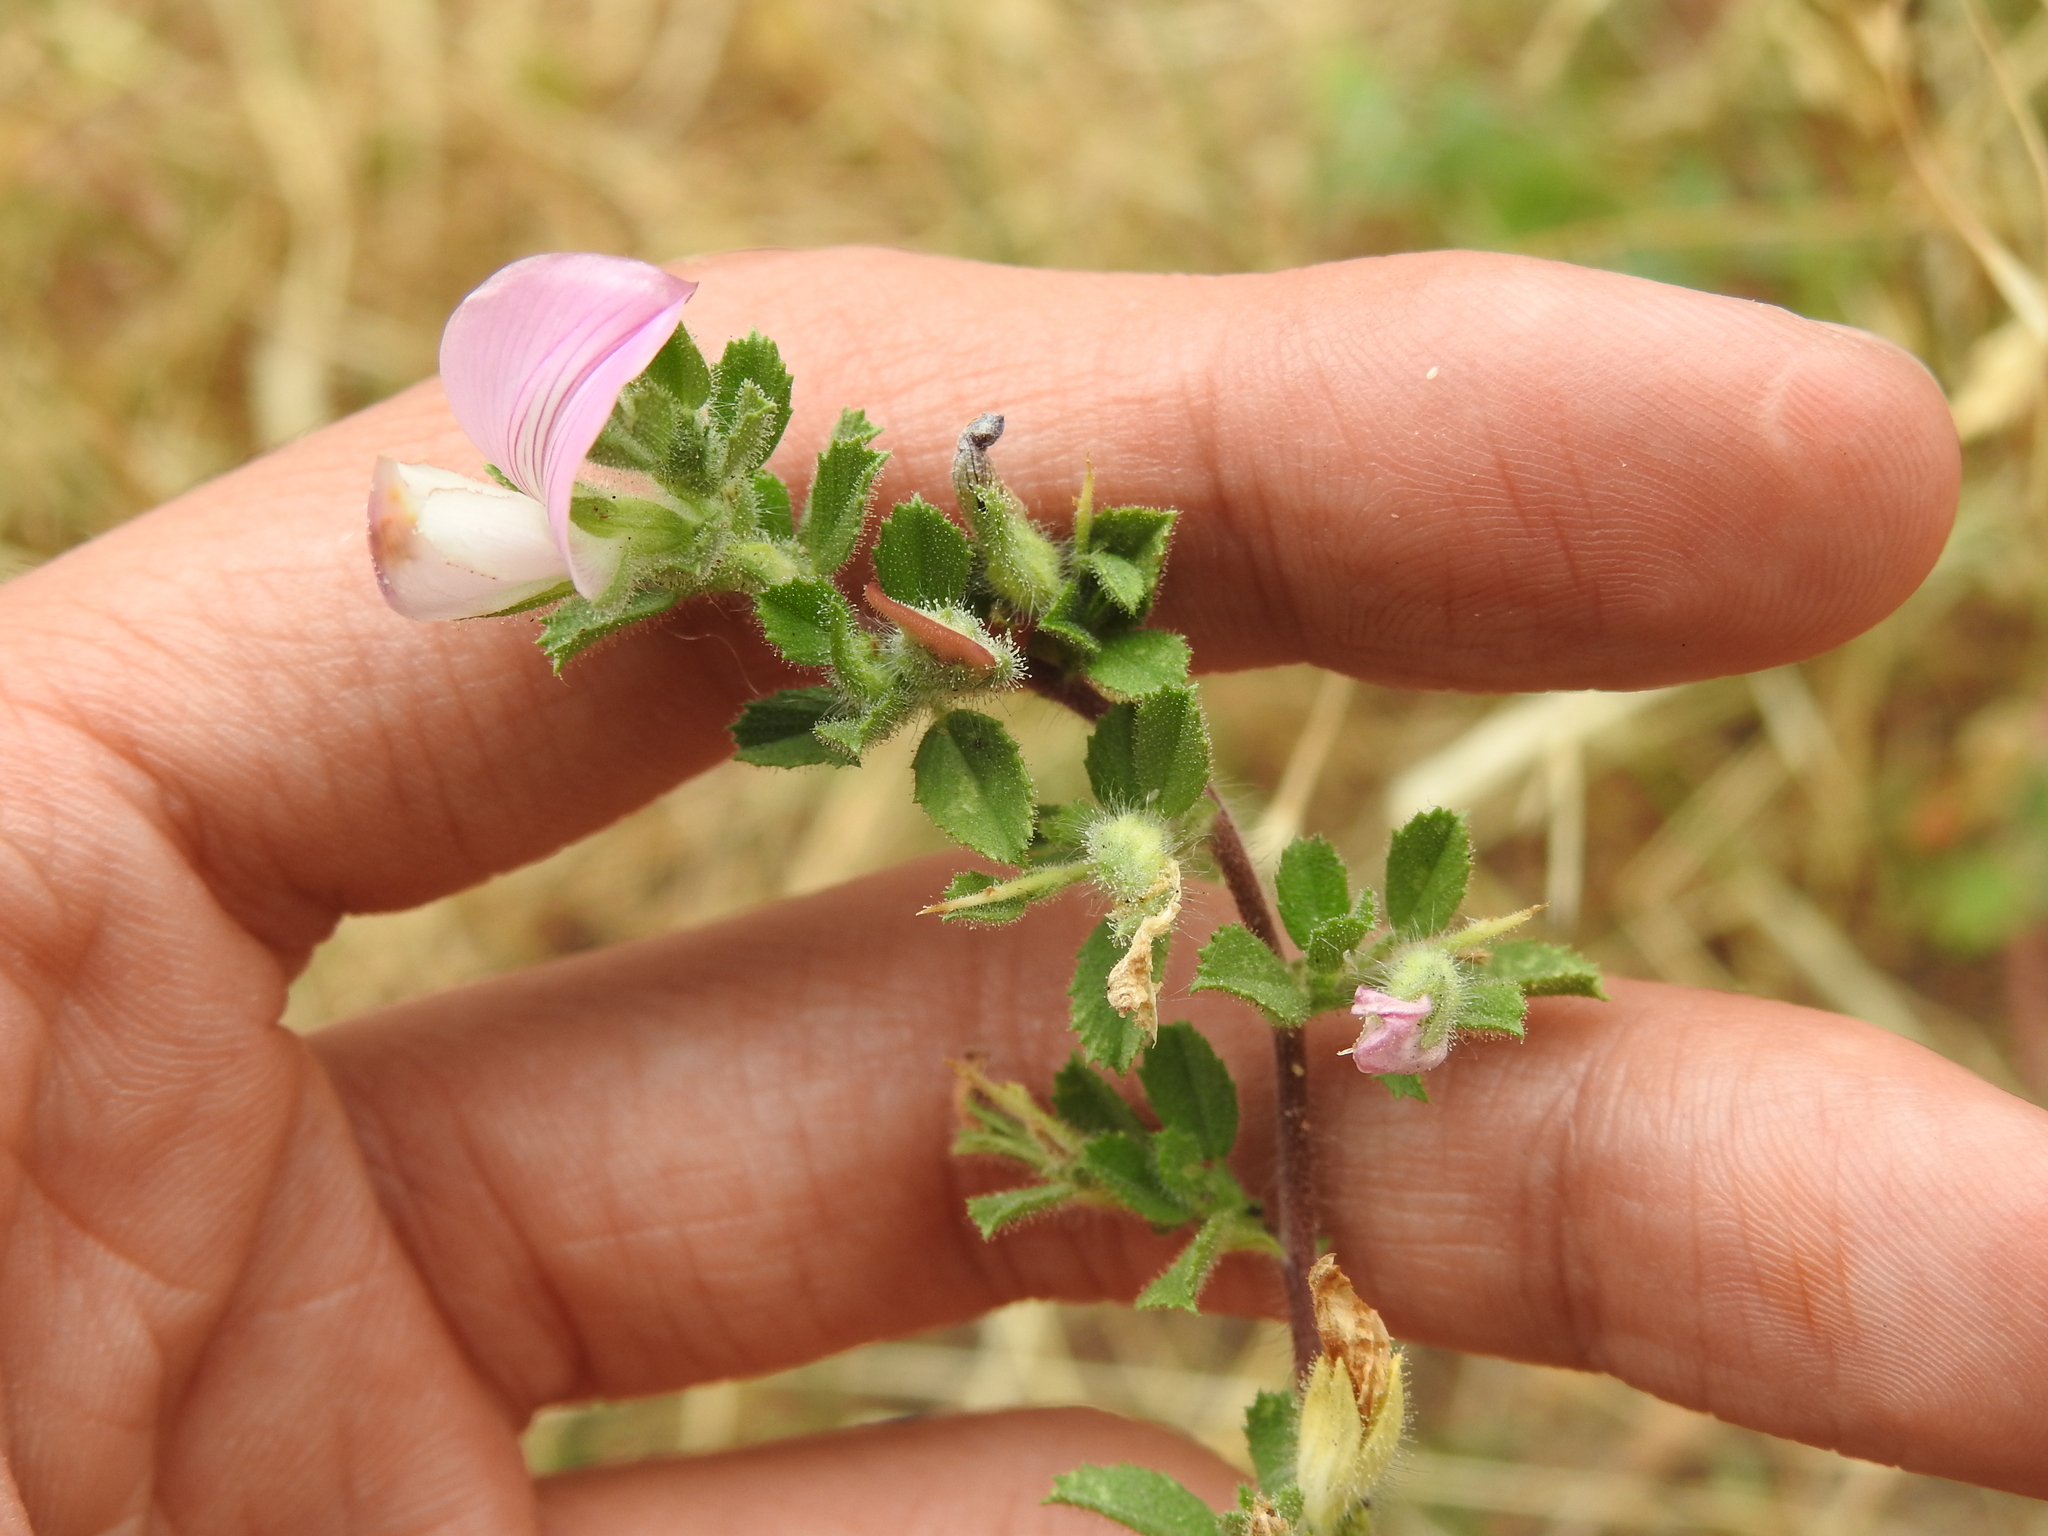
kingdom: Plantae
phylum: Tracheophyta
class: Magnoliopsida
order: Fabales
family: Fabaceae
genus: Ononis
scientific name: Ononis spinosa
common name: Spiny restharrow
